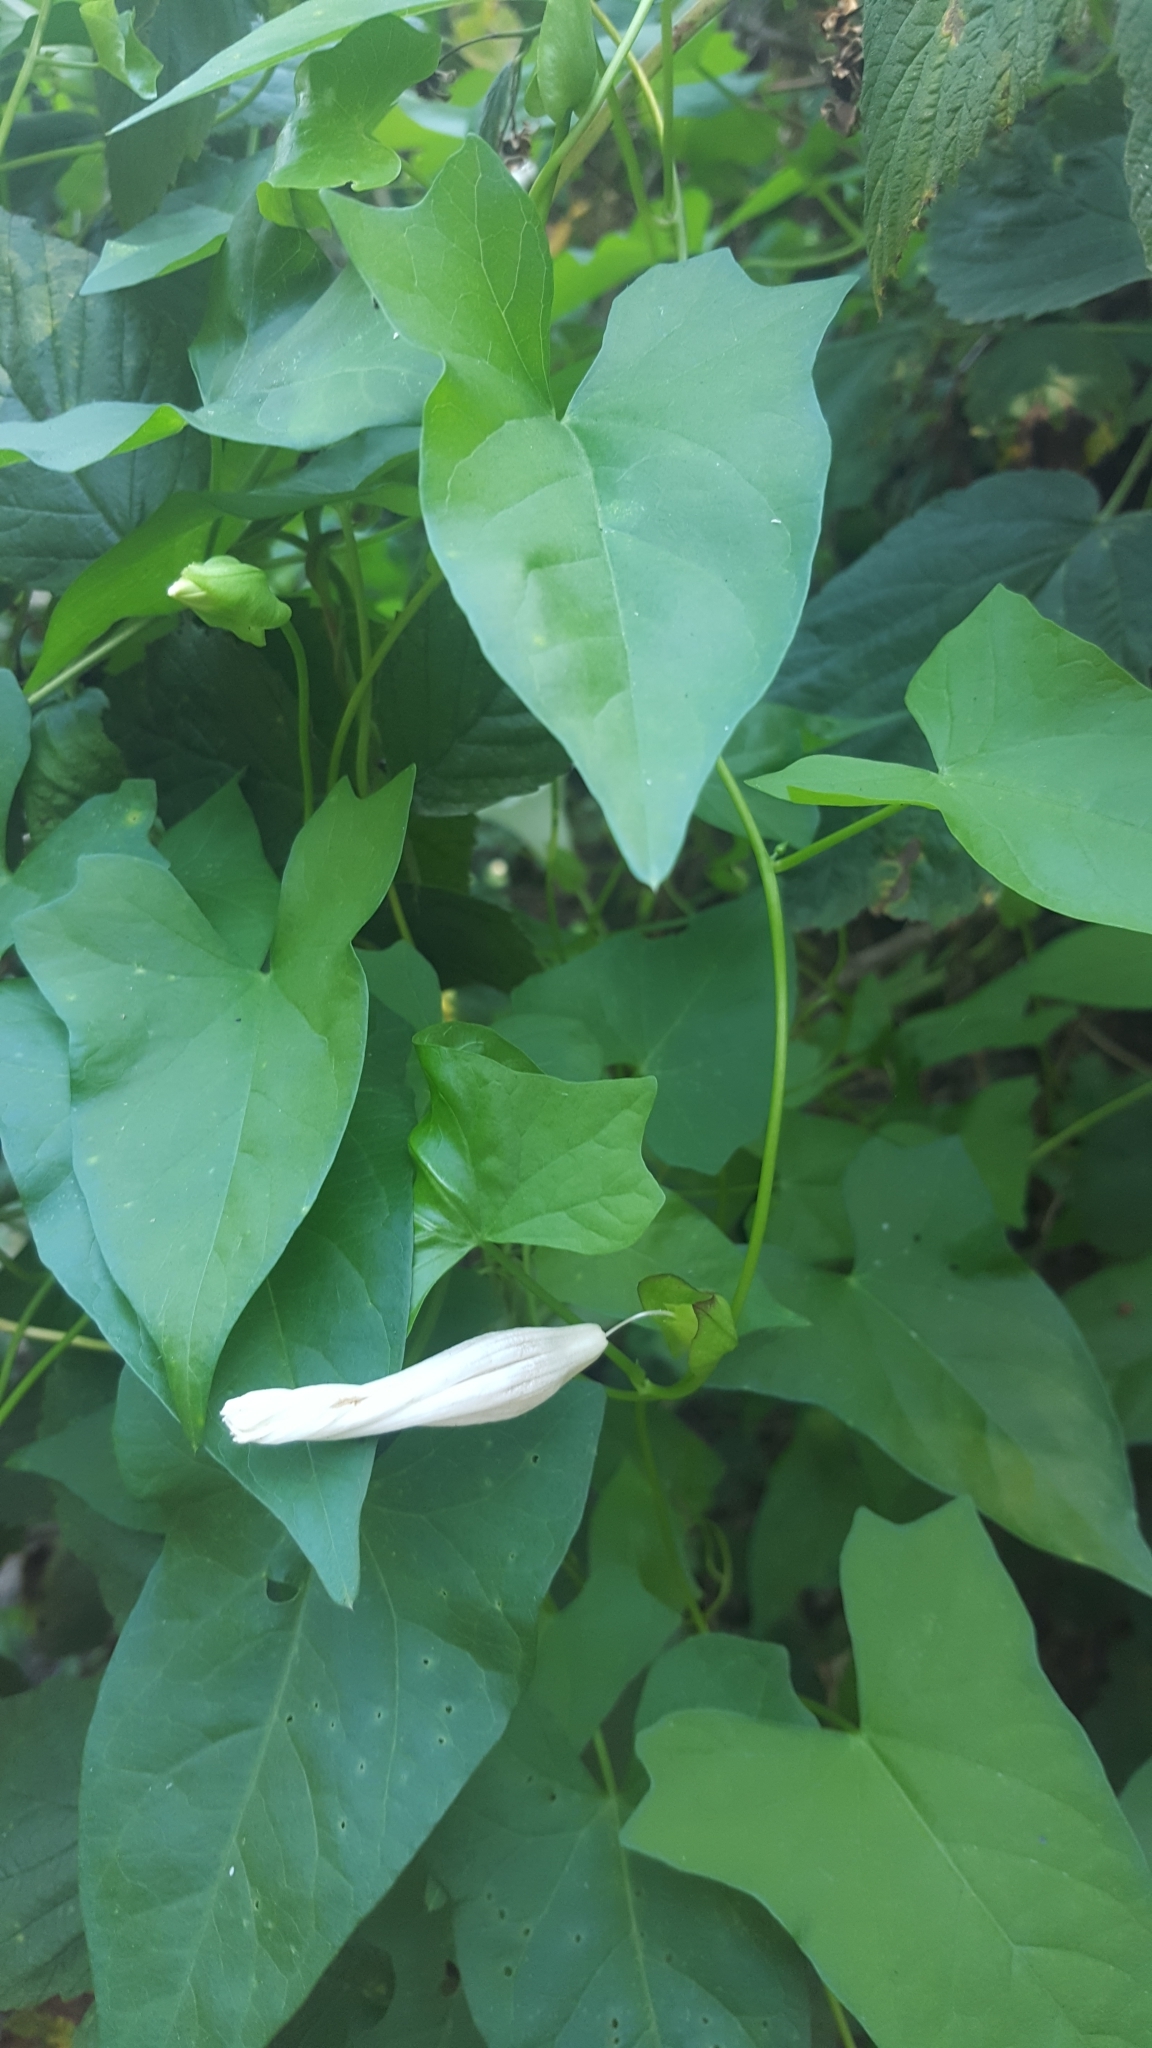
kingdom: Plantae
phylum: Tracheophyta
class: Magnoliopsida
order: Solanales
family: Convolvulaceae
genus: Calystegia
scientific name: Calystegia sepium
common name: Hedge bindweed
